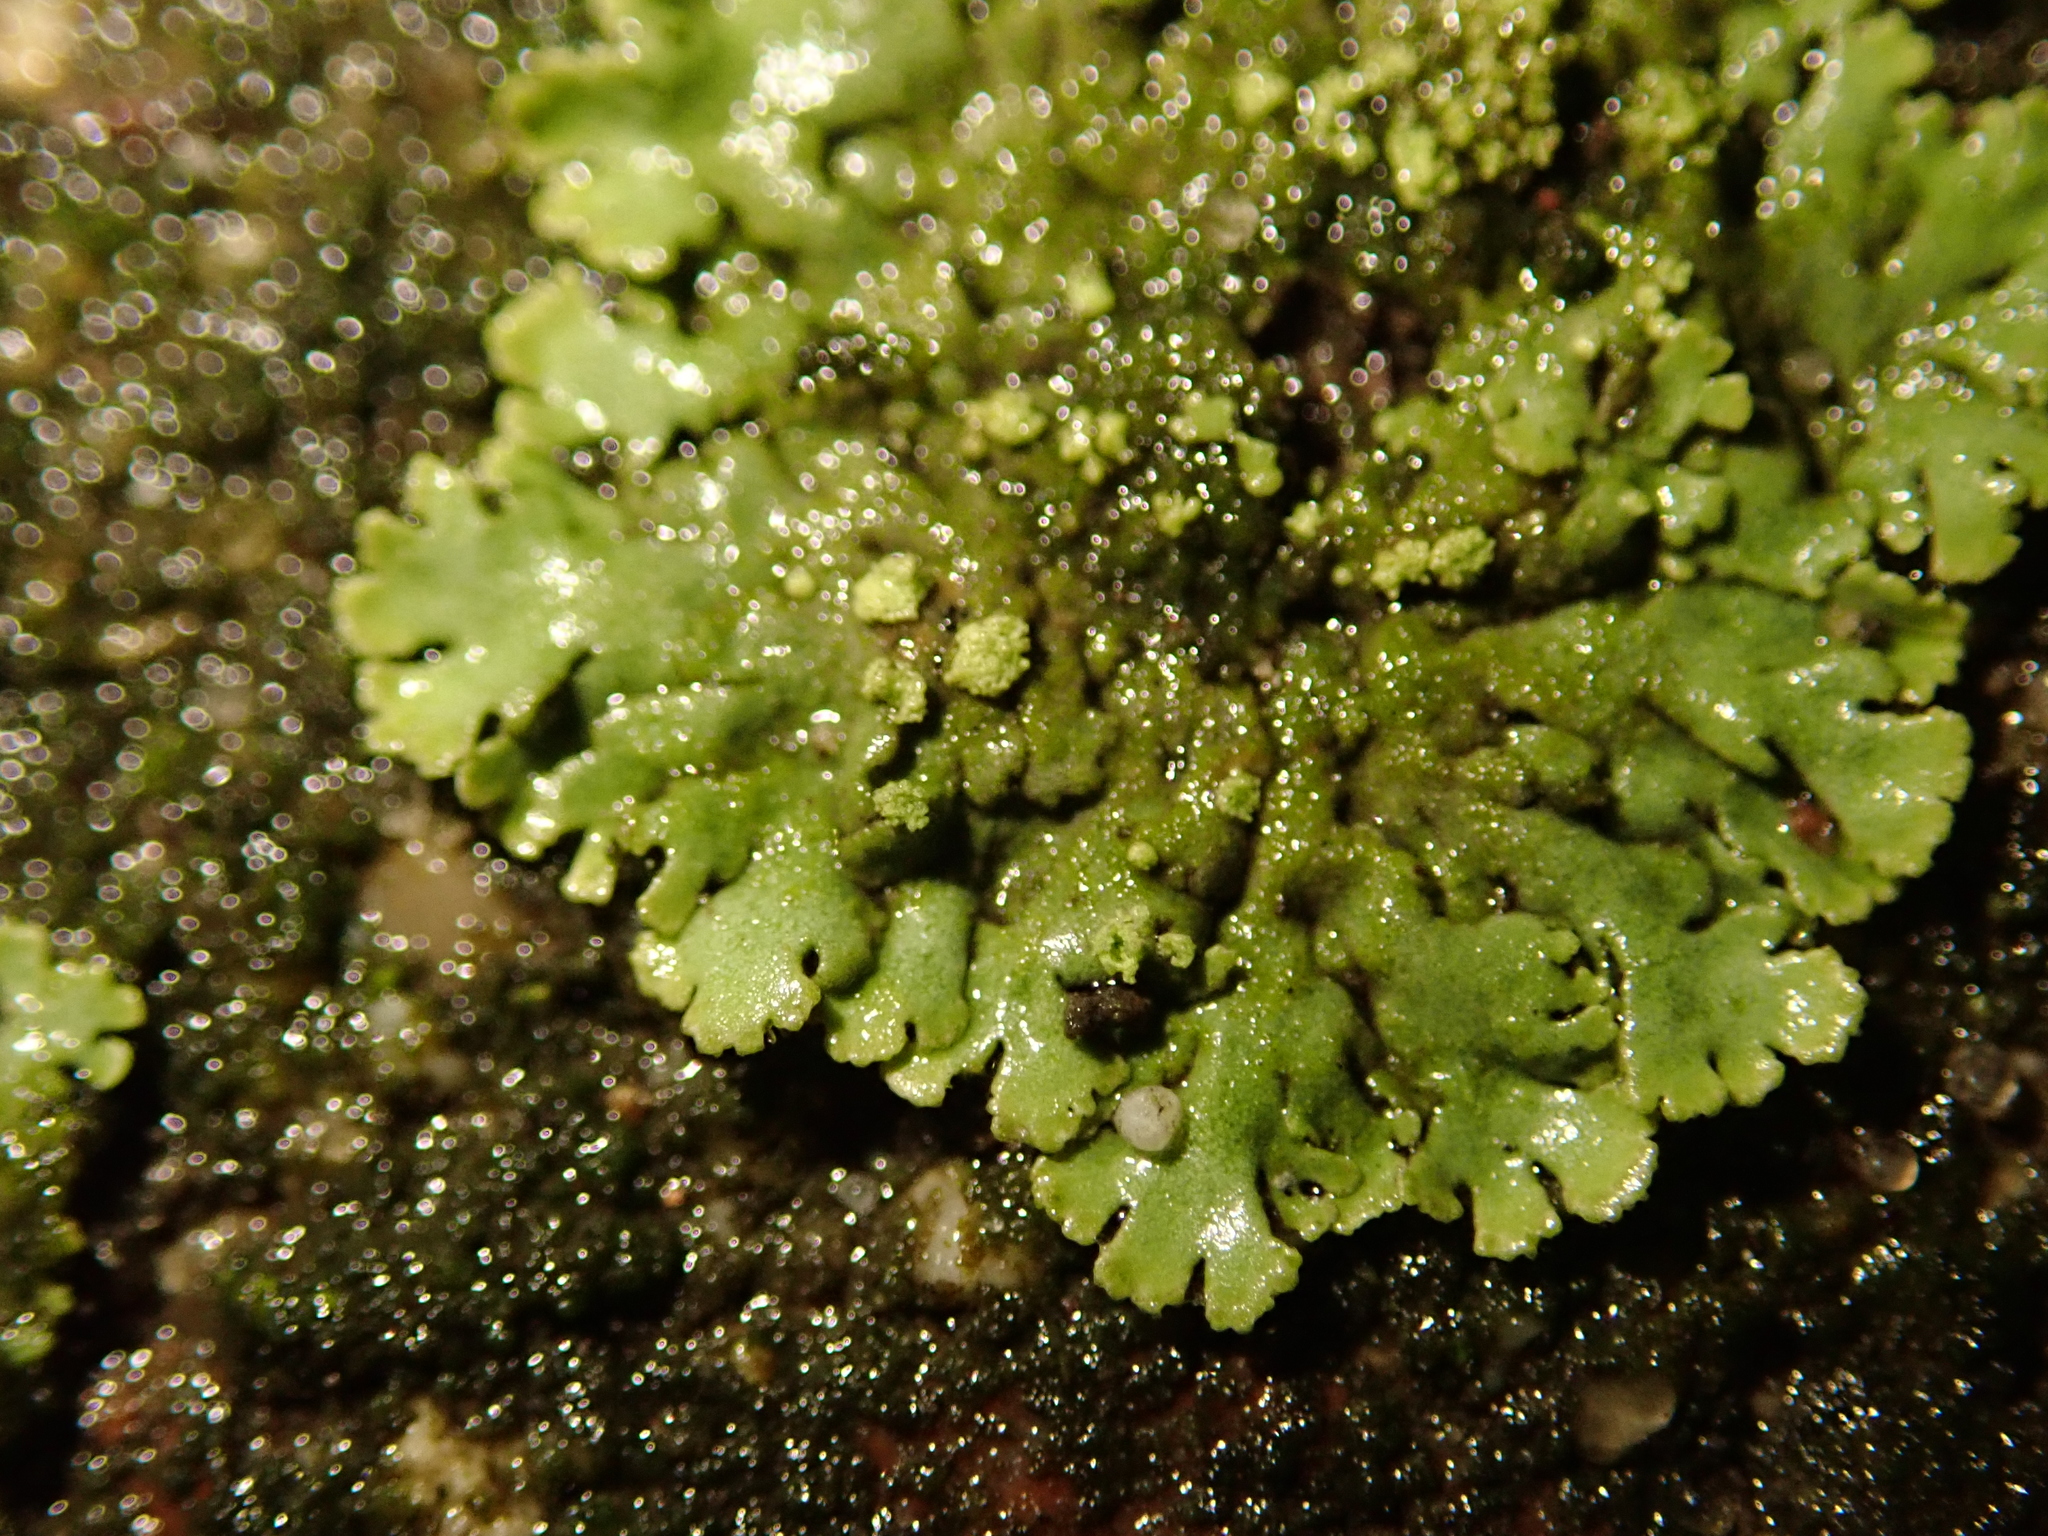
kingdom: Fungi
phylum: Ascomycota
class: Lecanoromycetes
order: Caliciales
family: Physciaceae
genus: Phaeophyscia
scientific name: Phaeophyscia orbicularis
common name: Mealy shadow lichen
